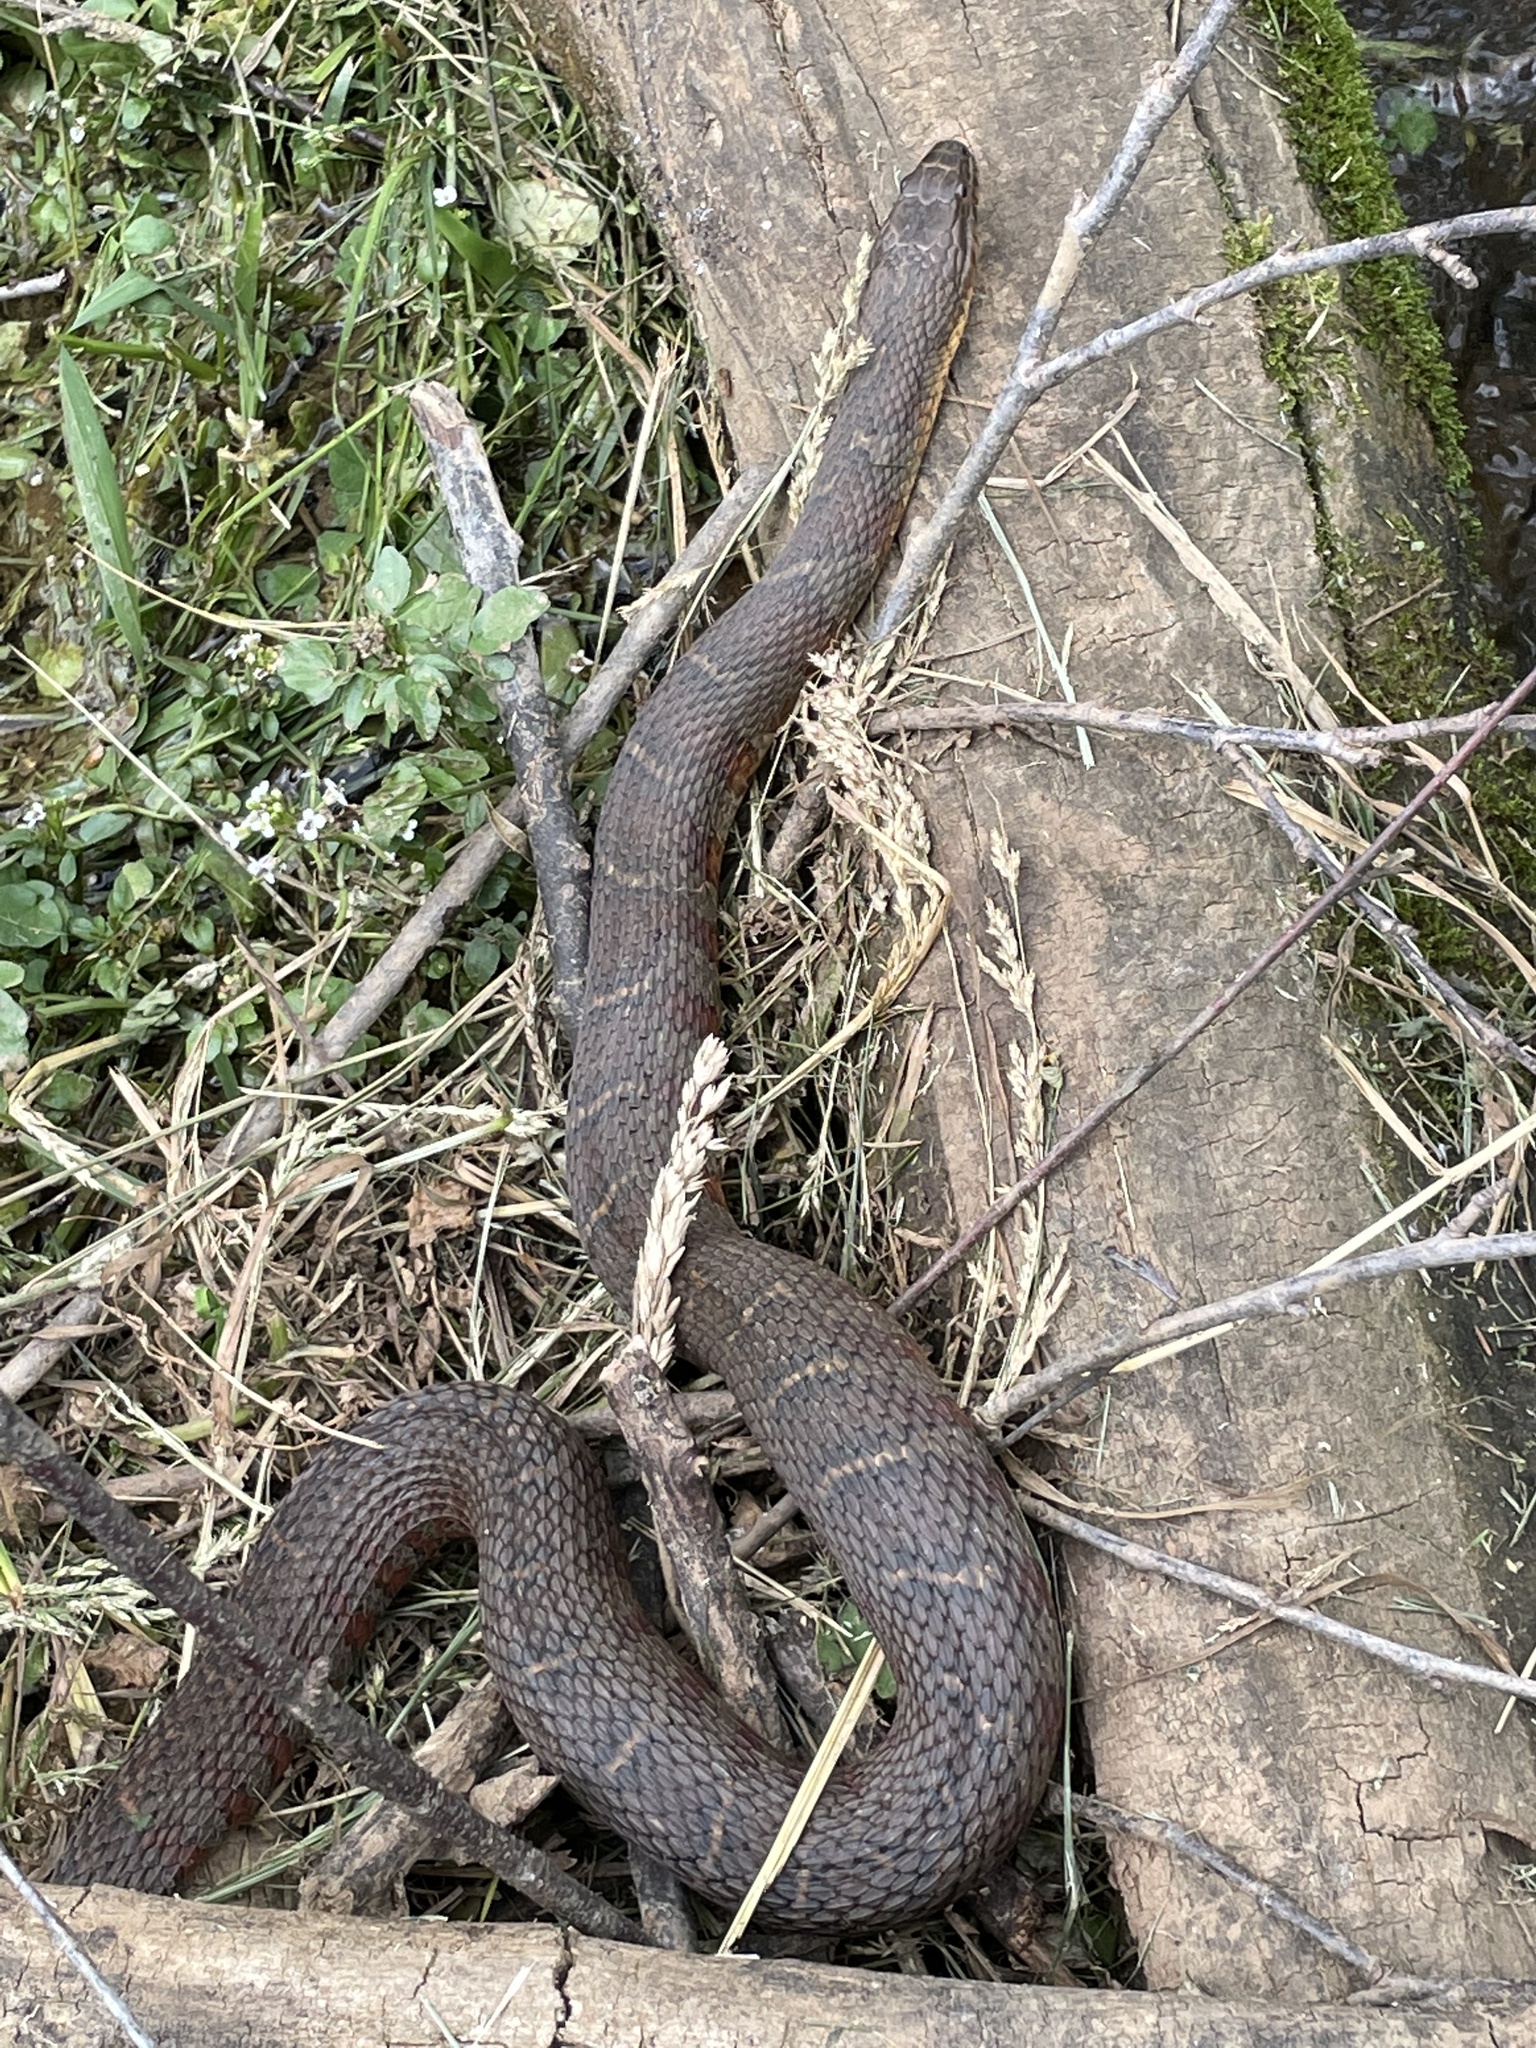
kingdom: Animalia
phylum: Chordata
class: Squamata
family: Colubridae
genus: Nerodia
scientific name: Nerodia sipedon
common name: Northern water snake
